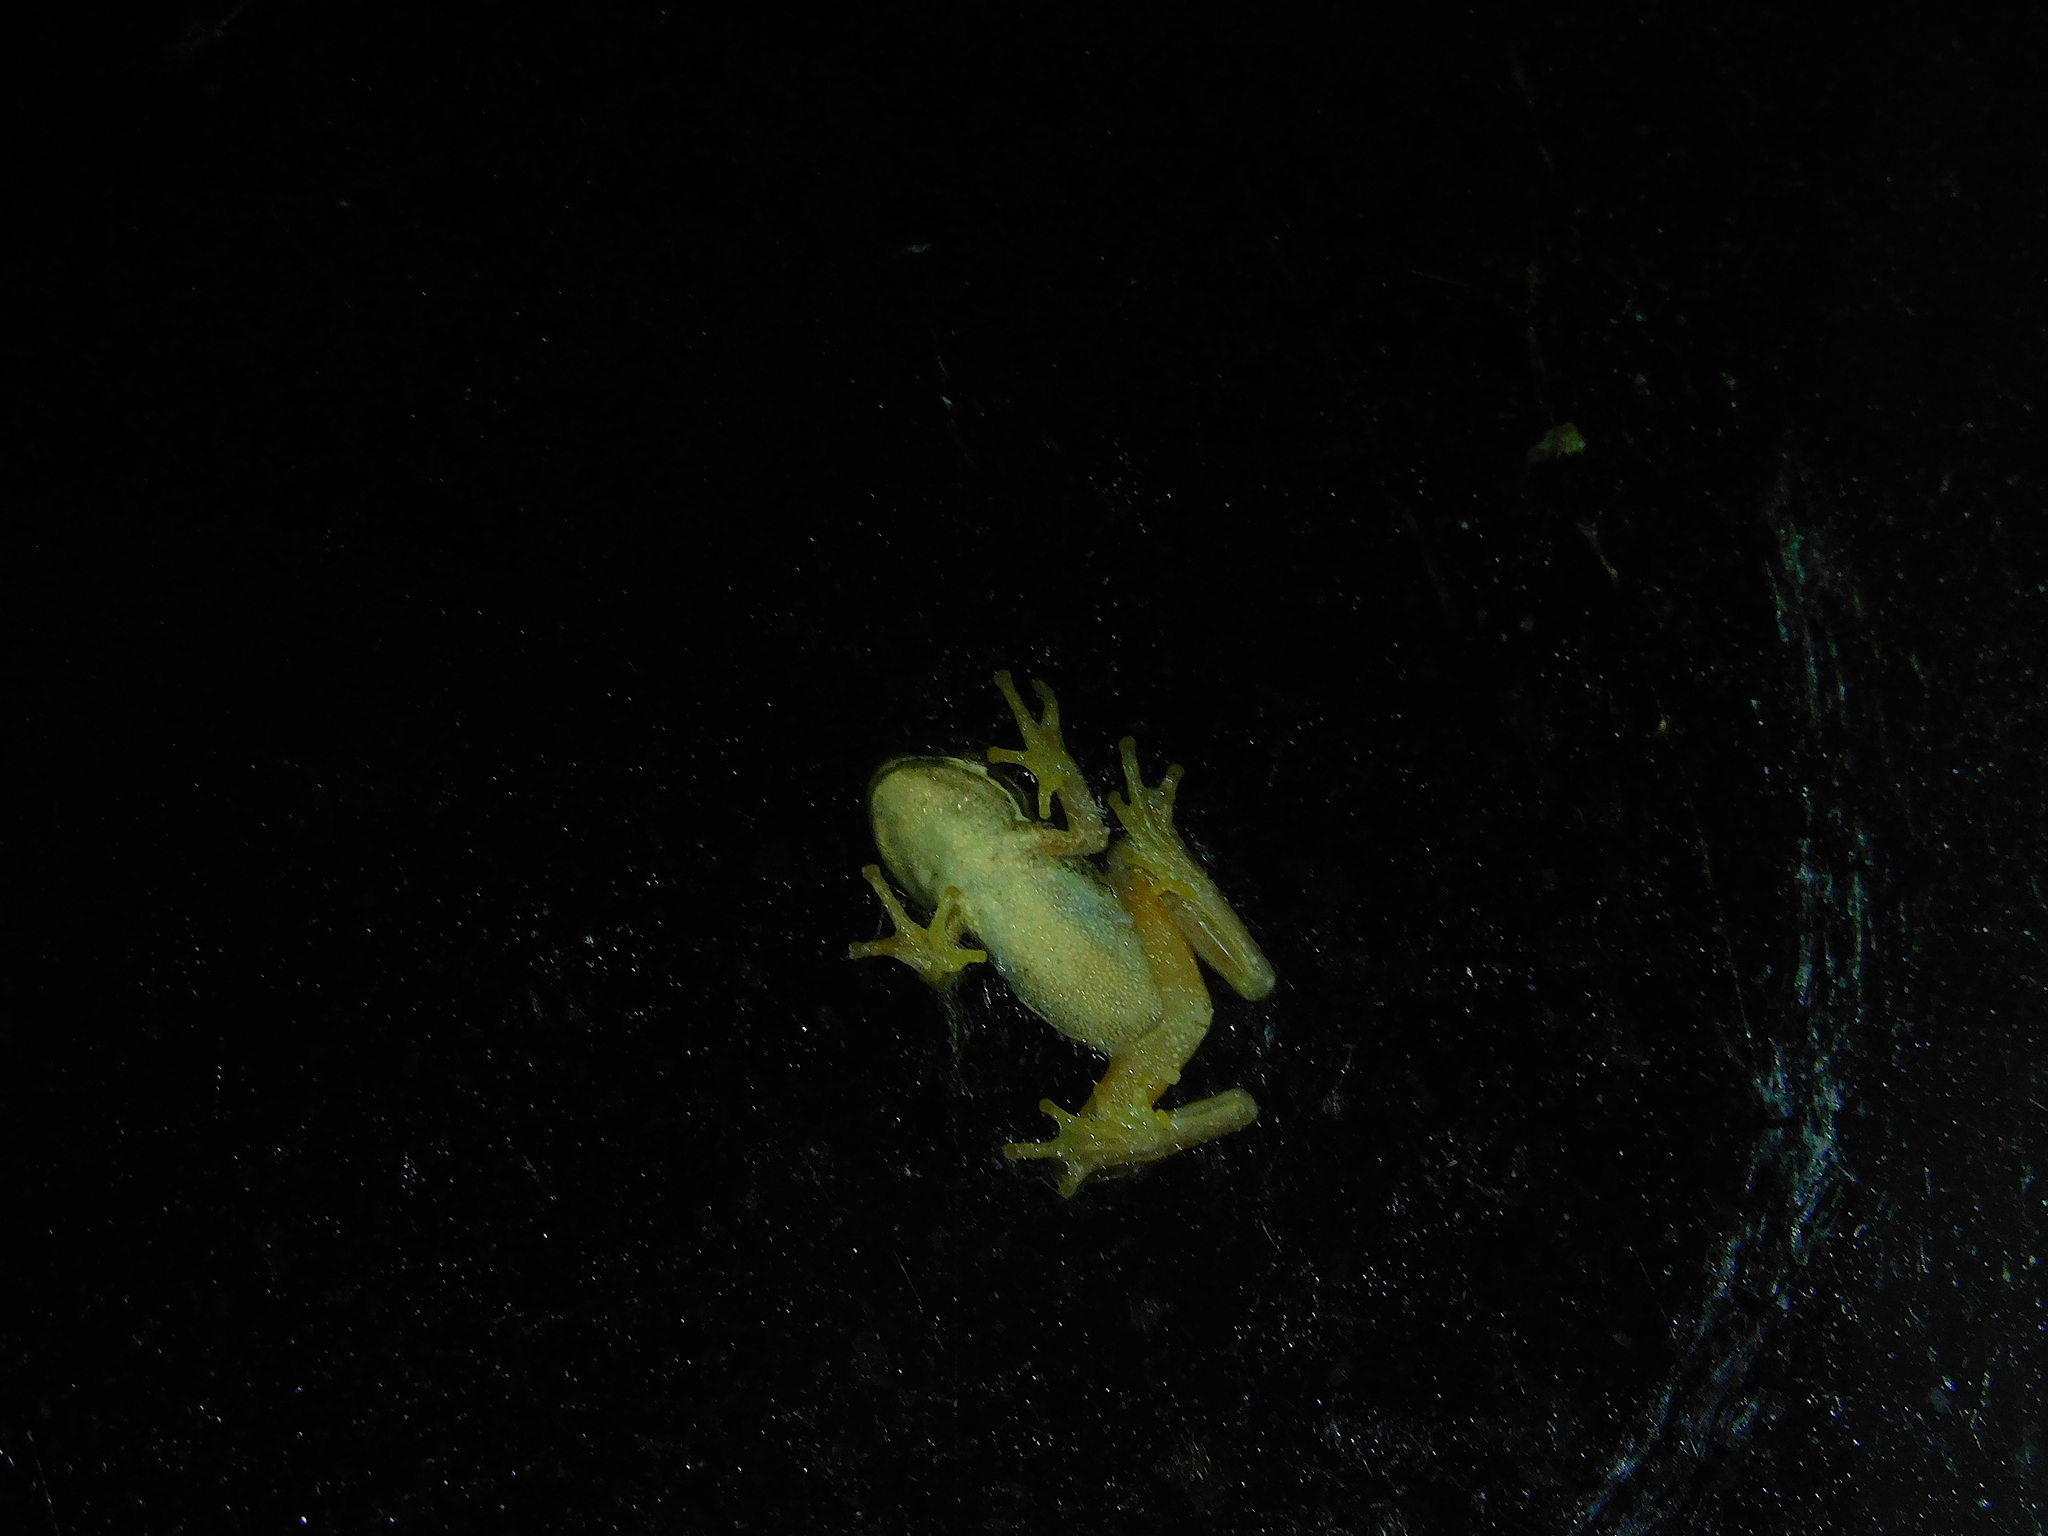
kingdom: Animalia
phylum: Chordata
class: Amphibia
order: Anura
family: Pelodryadidae
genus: Litoria
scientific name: Litoria ewingii
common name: Southern brown tree frog
